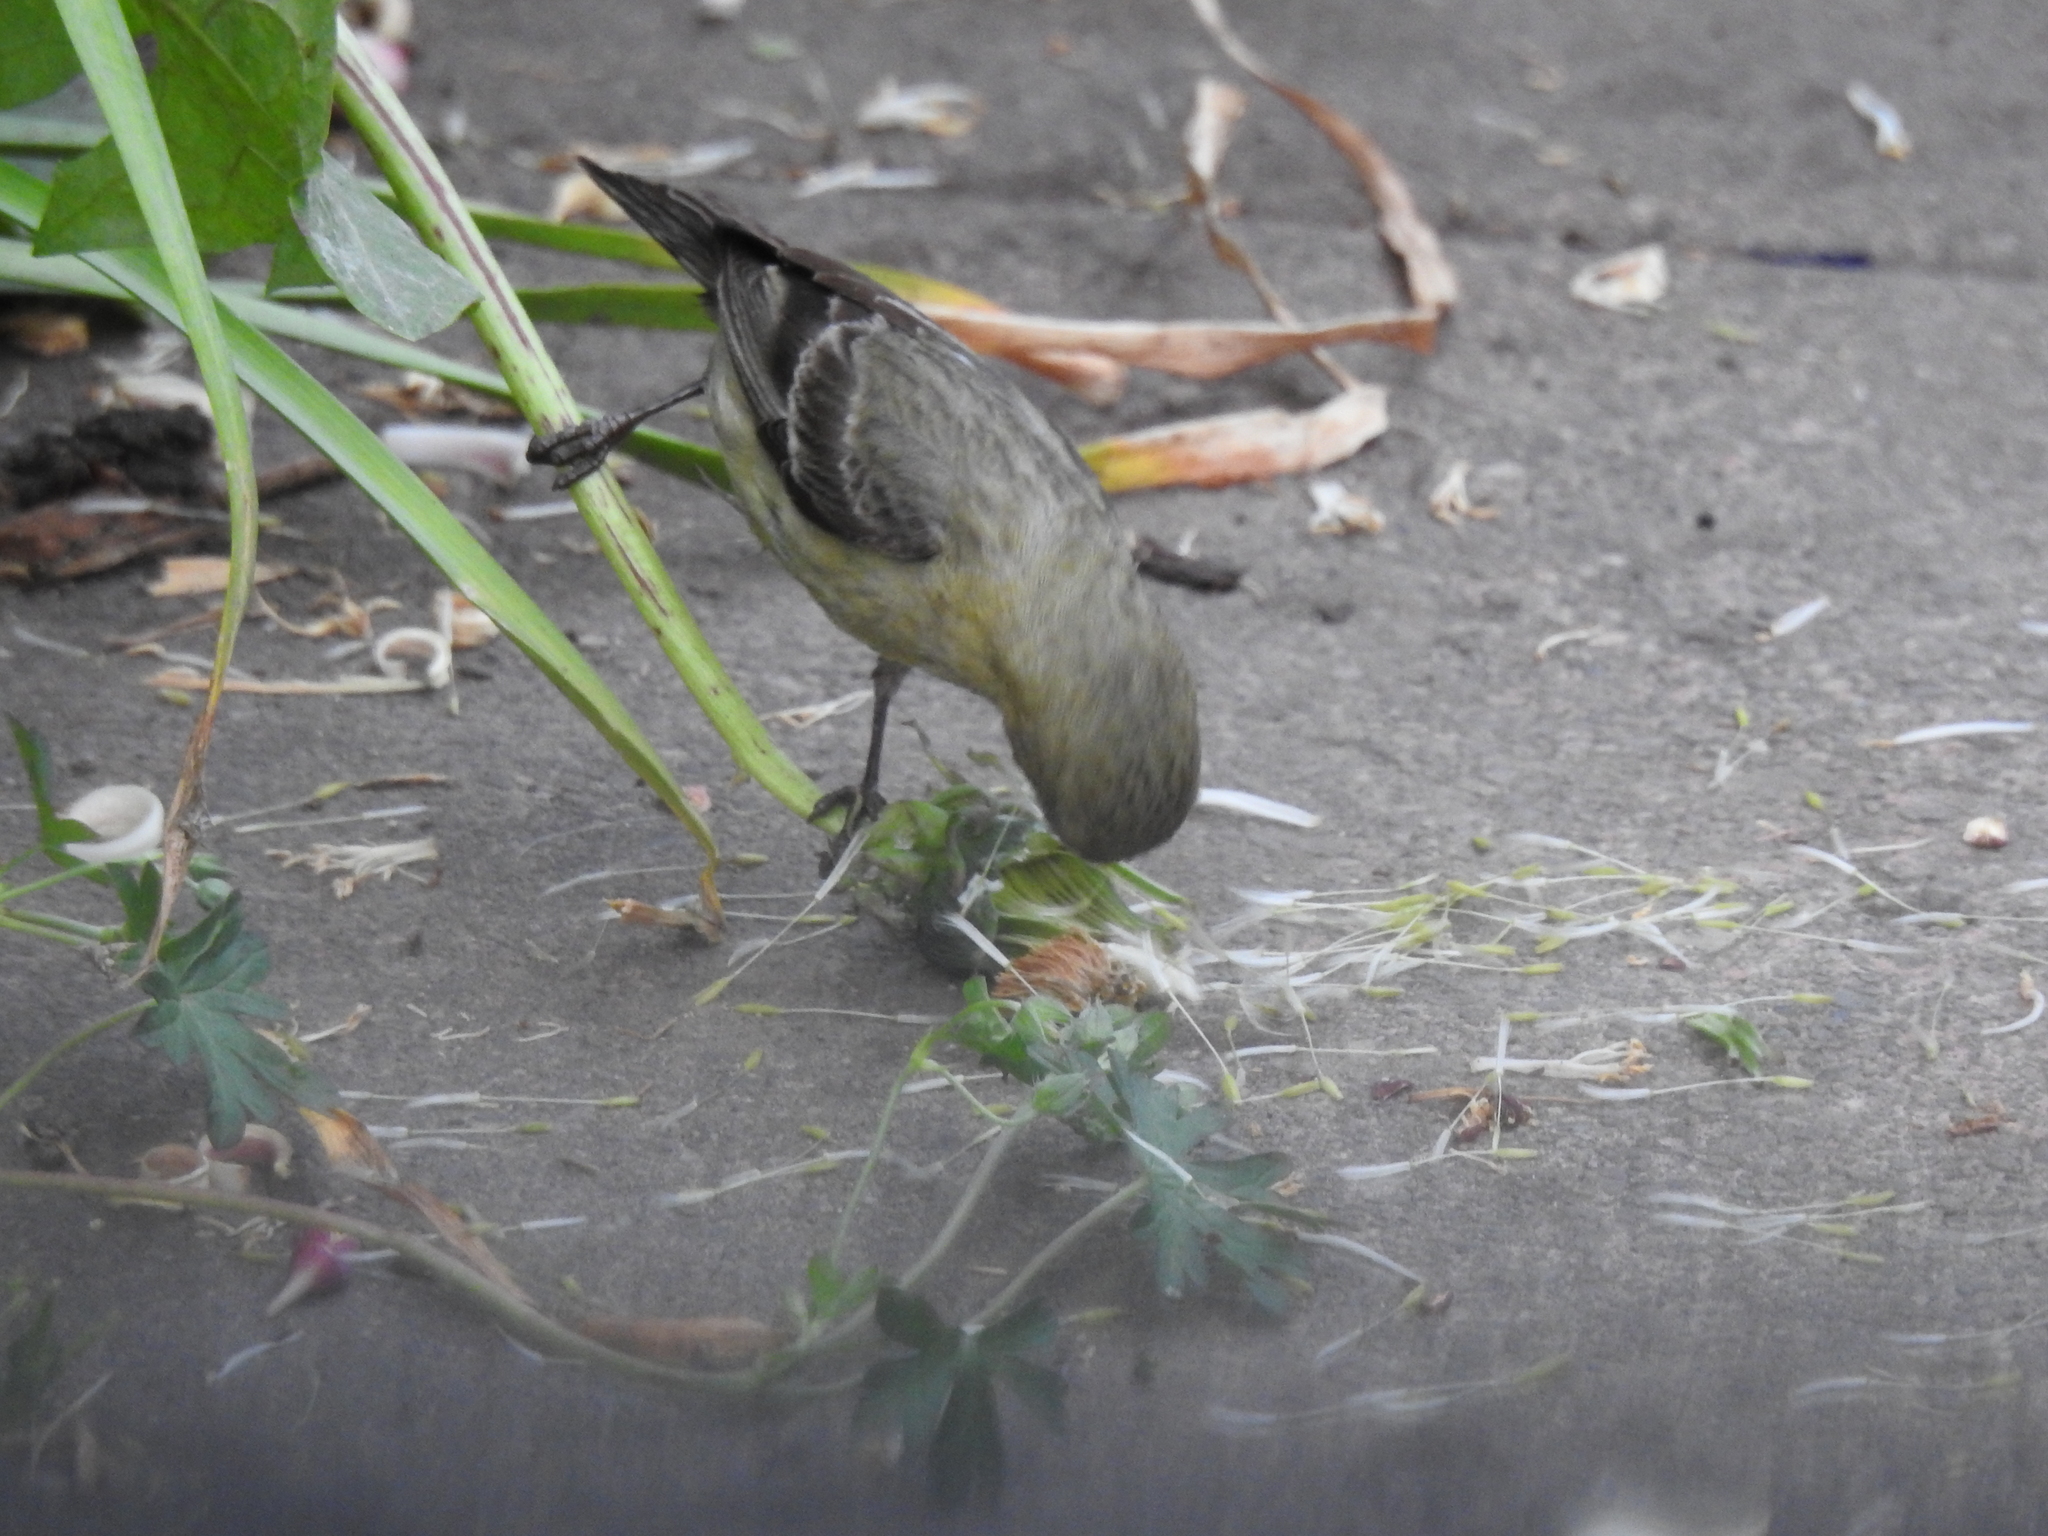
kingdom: Animalia
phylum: Chordata
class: Aves
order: Passeriformes
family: Fringillidae
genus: Spinus
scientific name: Spinus psaltria
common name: Lesser goldfinch
